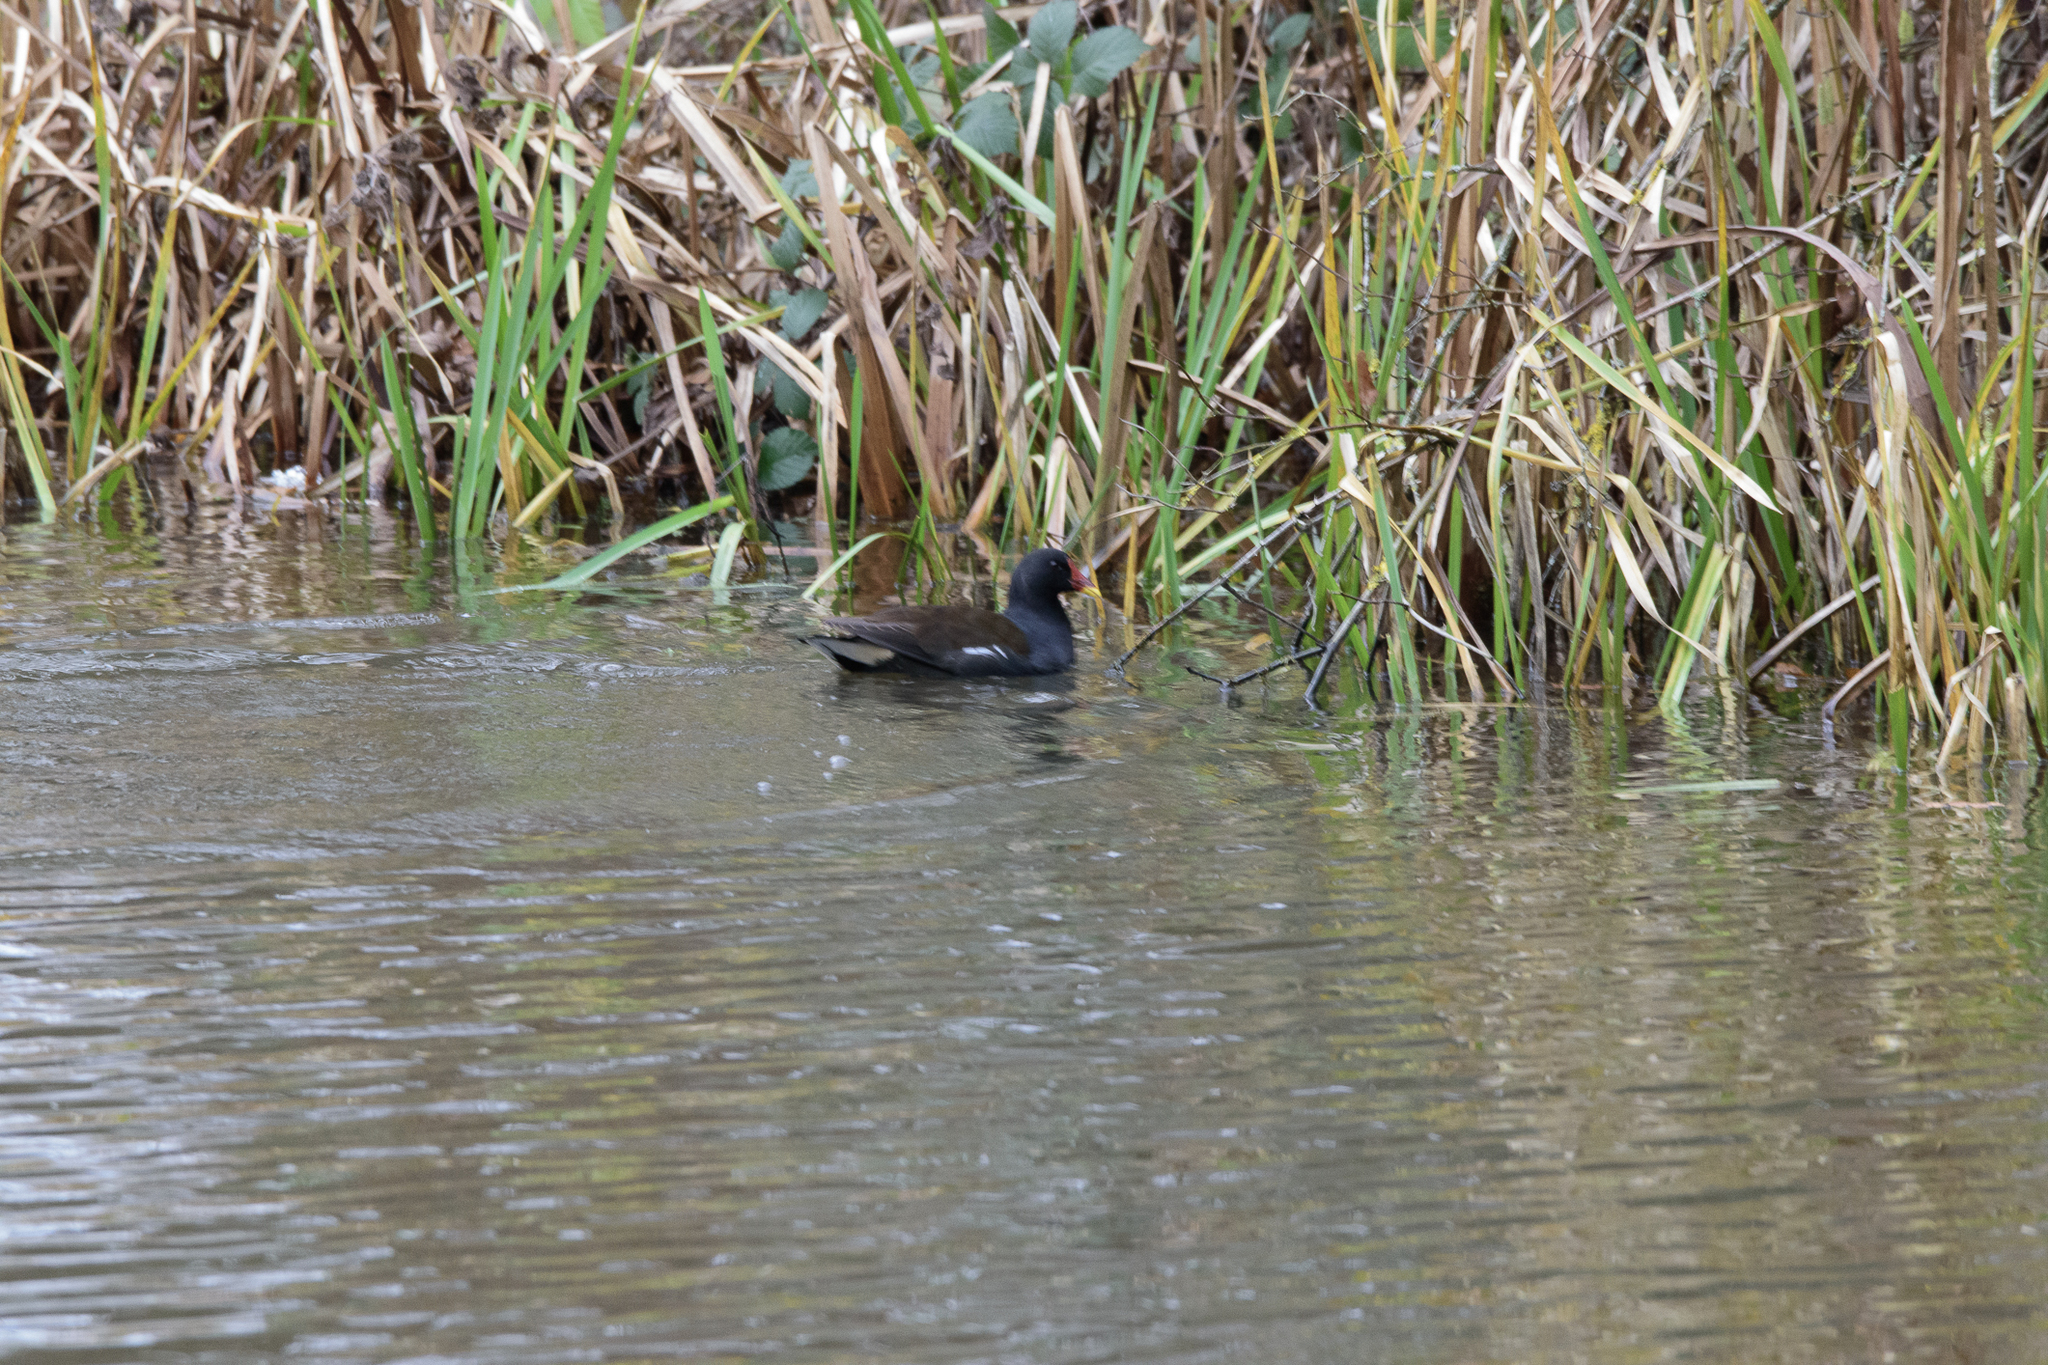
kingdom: Animalia
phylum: Chordata
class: Aves
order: Gruiformes
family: Rallidae
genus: Gallinula
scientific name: Gallinula chloropus
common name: Common moorhen
